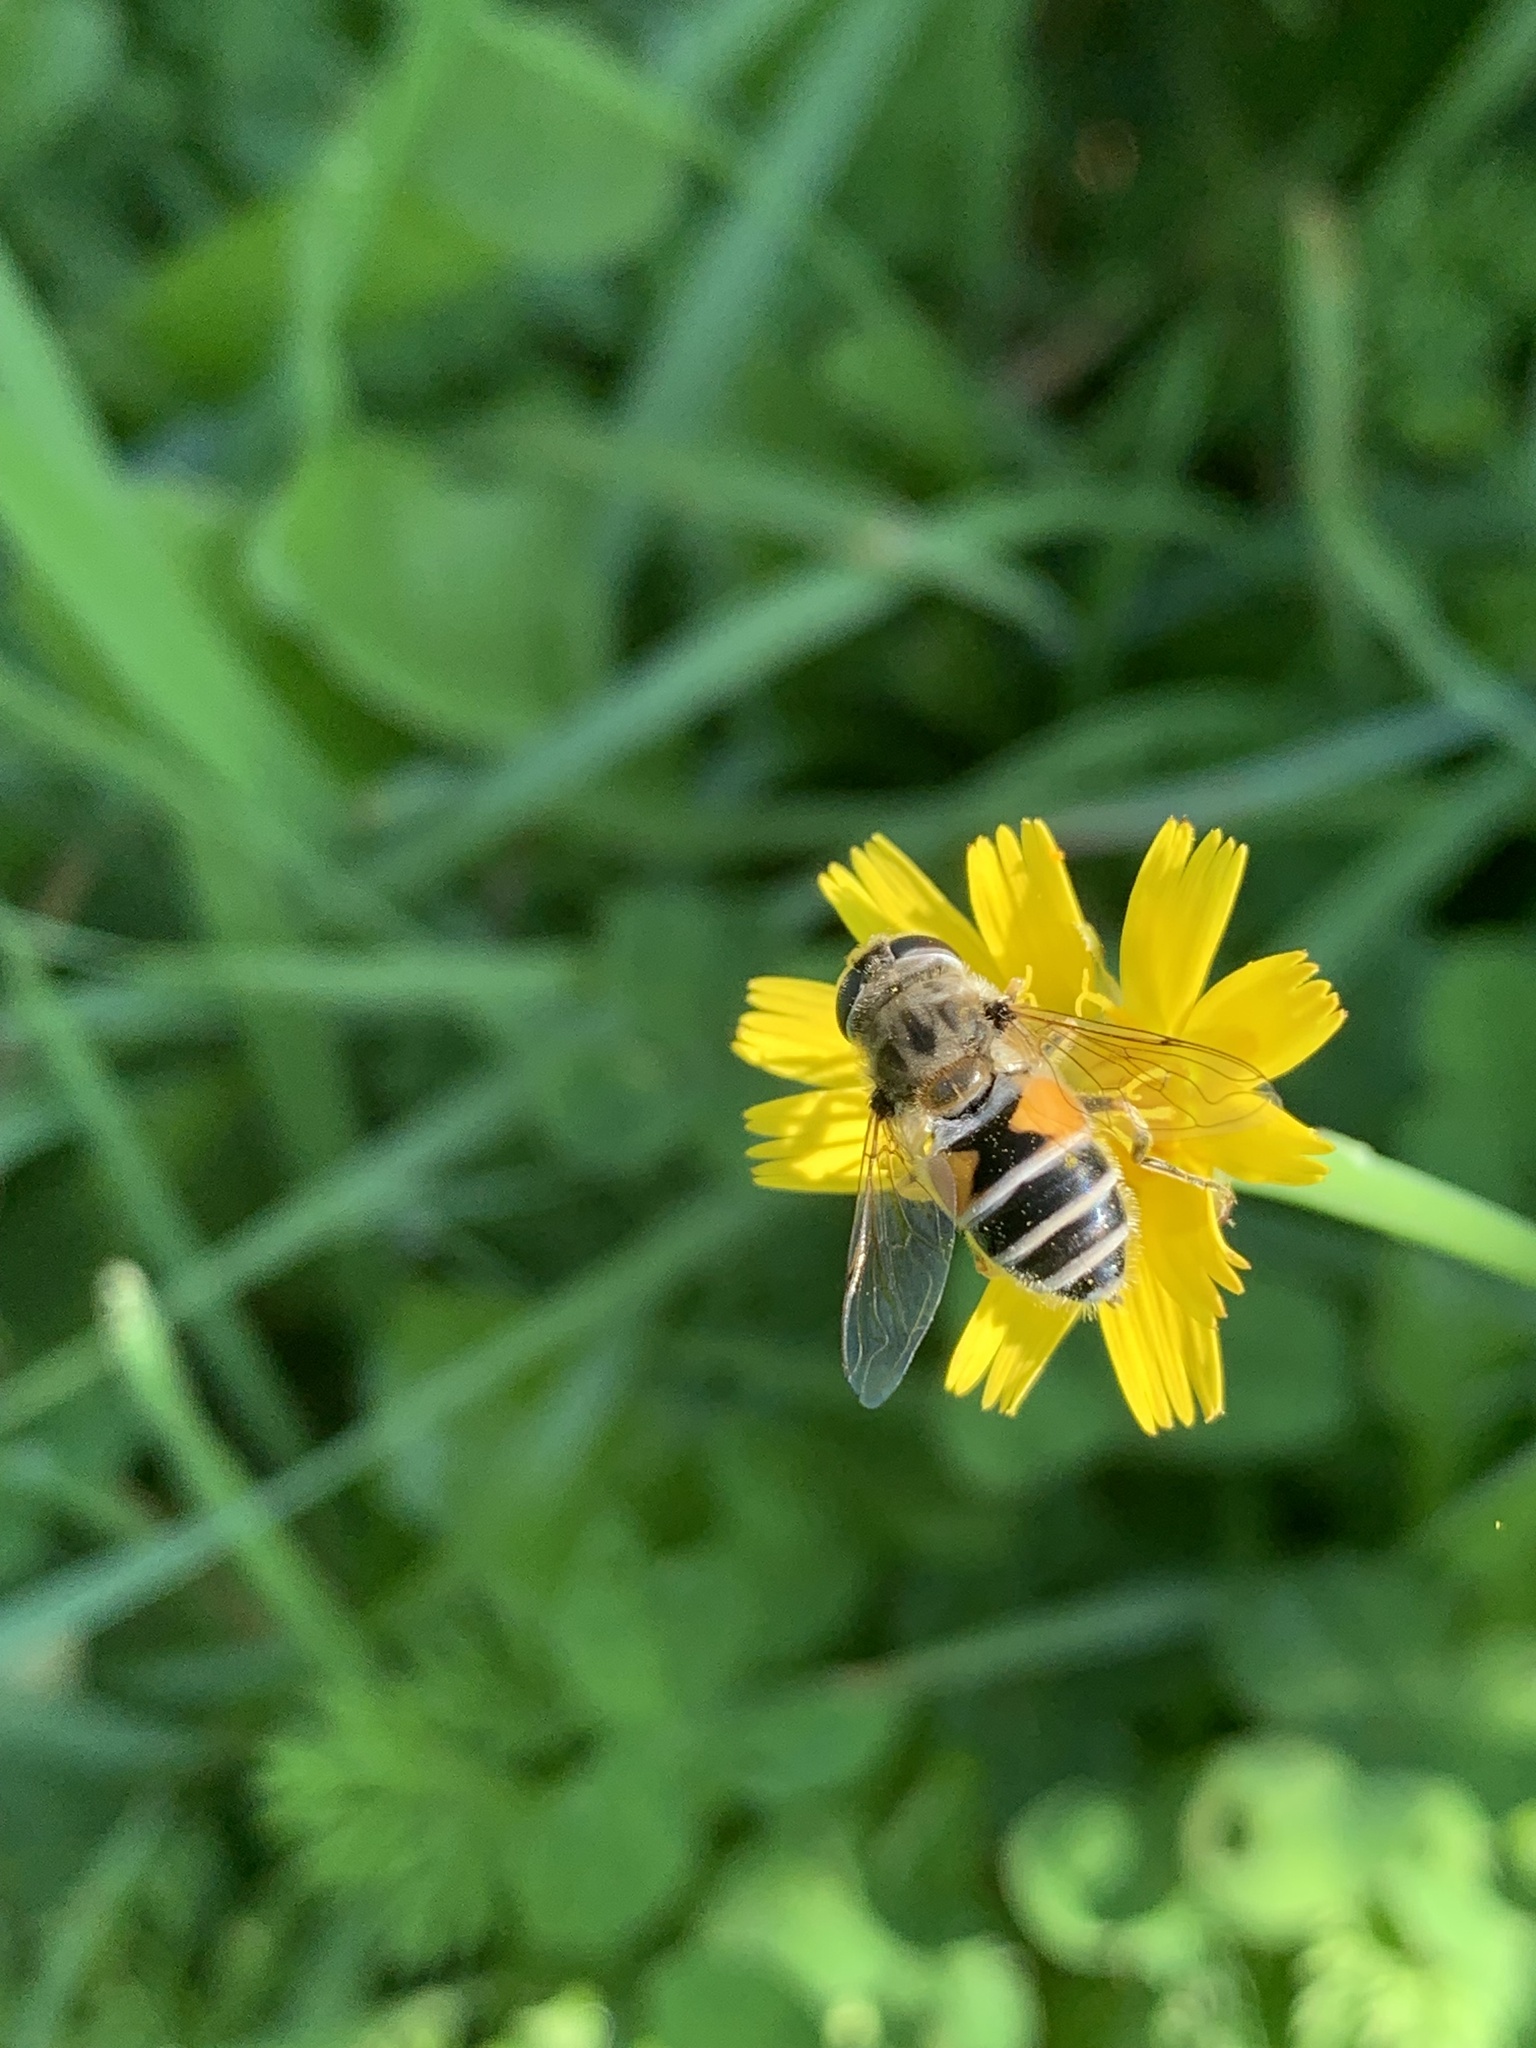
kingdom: Animalia
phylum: Arthropoda
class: Insecta
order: Diptera
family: Syrphidae
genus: Eristalis
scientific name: Eristalis arbustorum
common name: Hover fly
